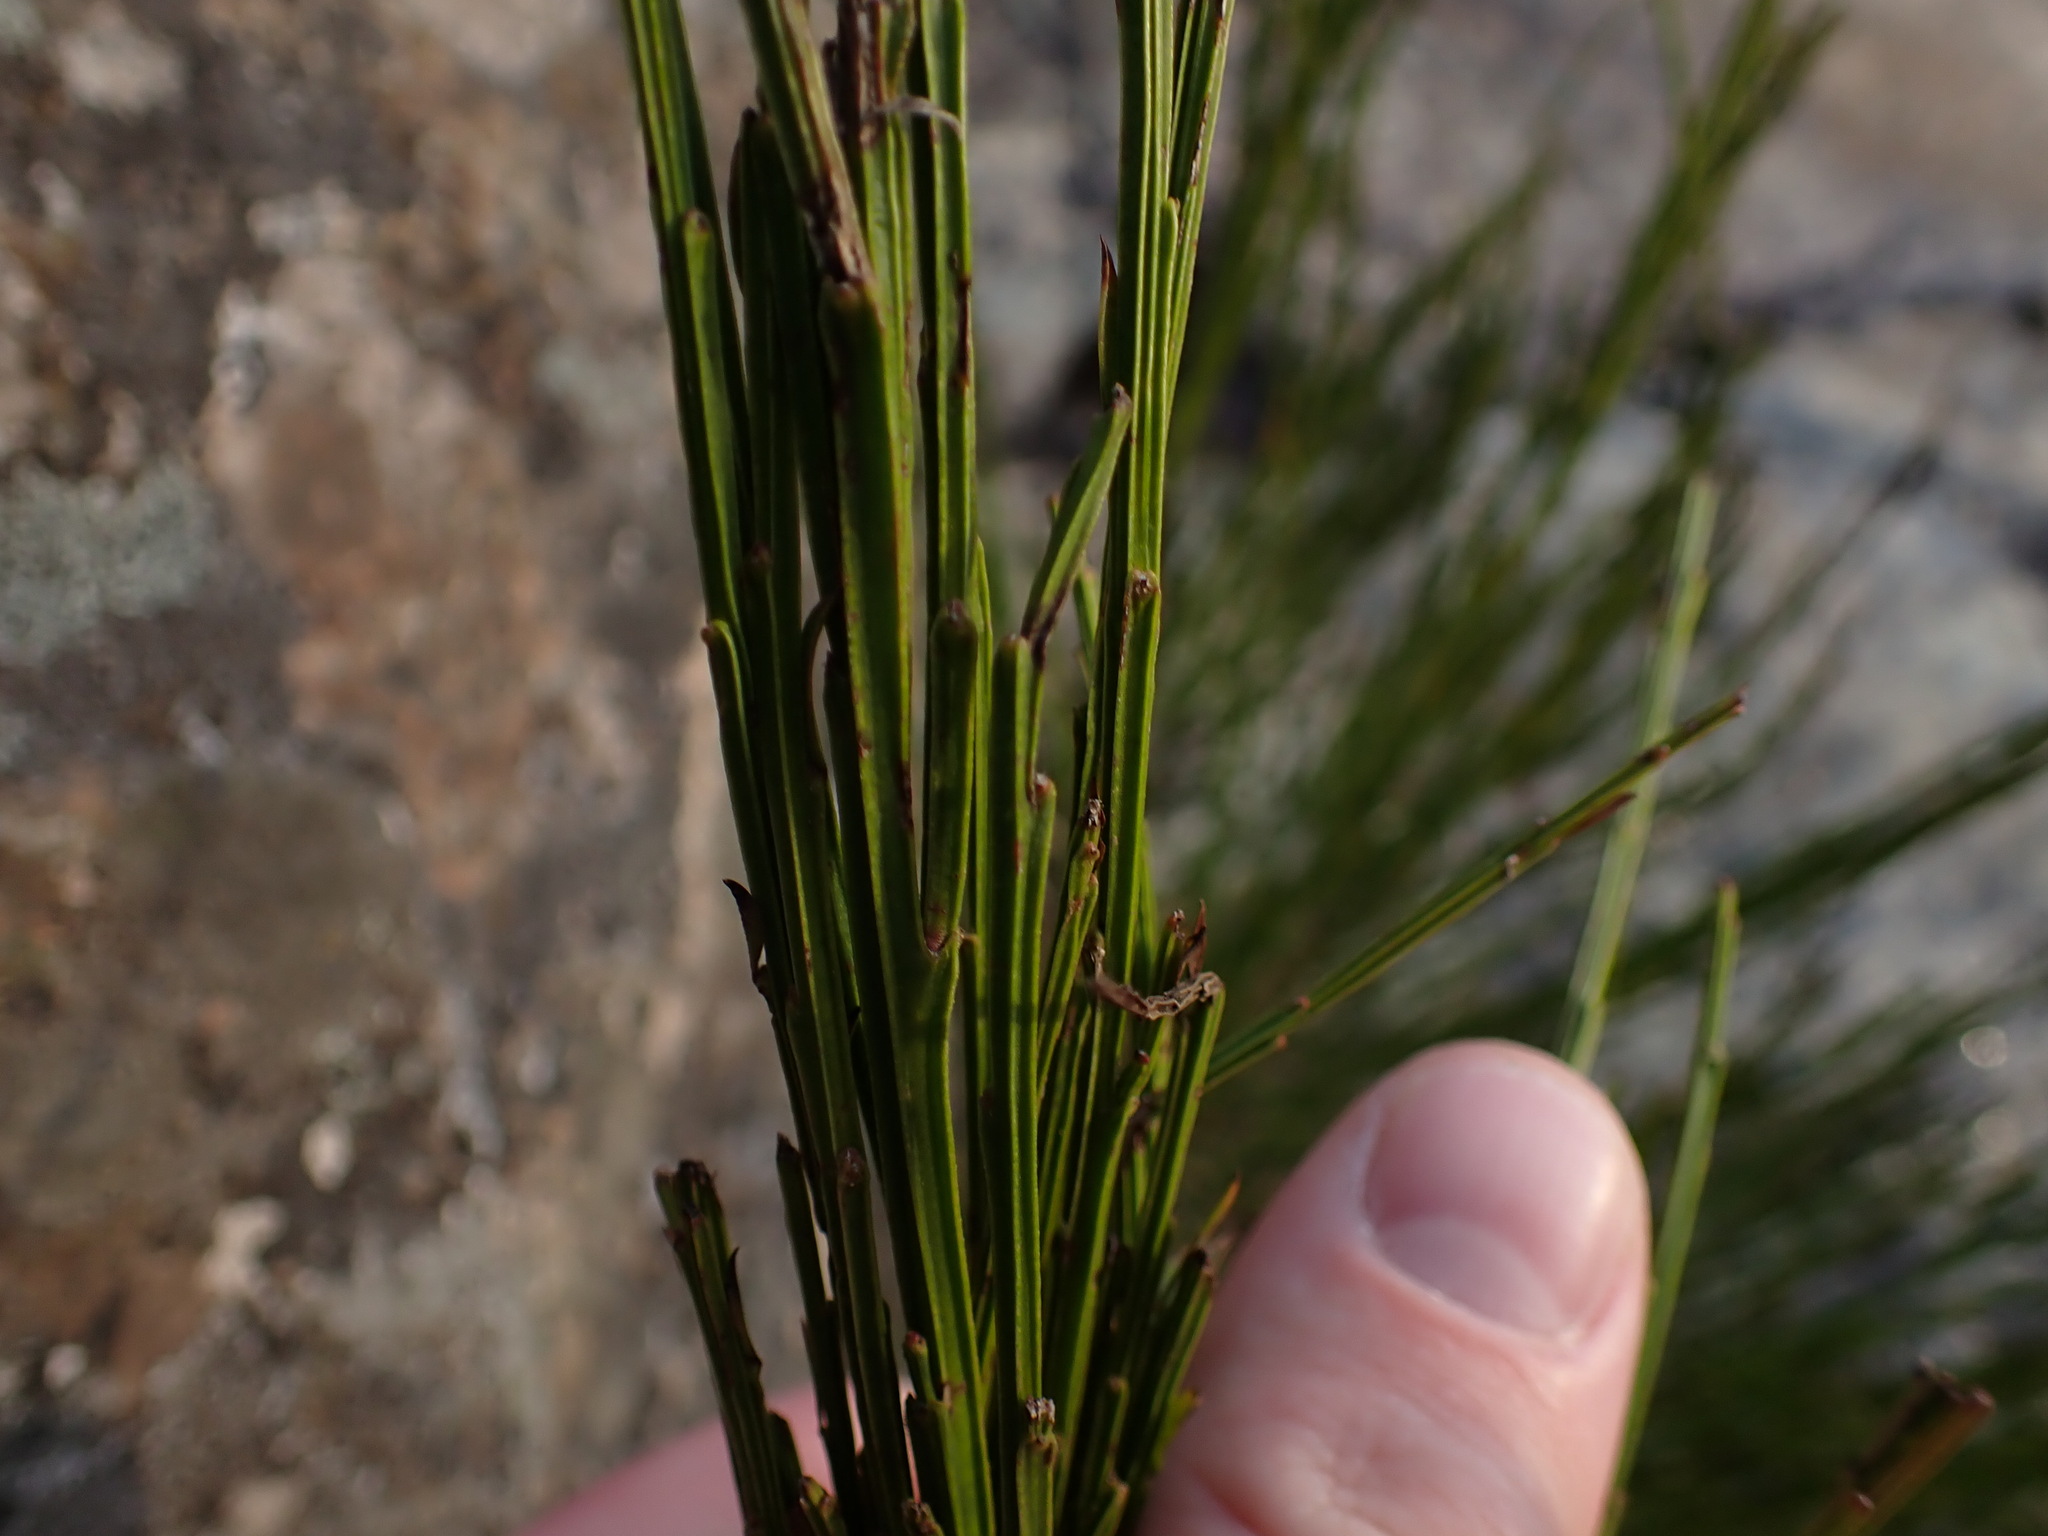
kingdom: Plantae
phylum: Tracheophyta
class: Magnoliopsida
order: Fabales
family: Fabaceae
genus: Cytisus
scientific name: Cytisus scoparius
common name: Scotch broom
